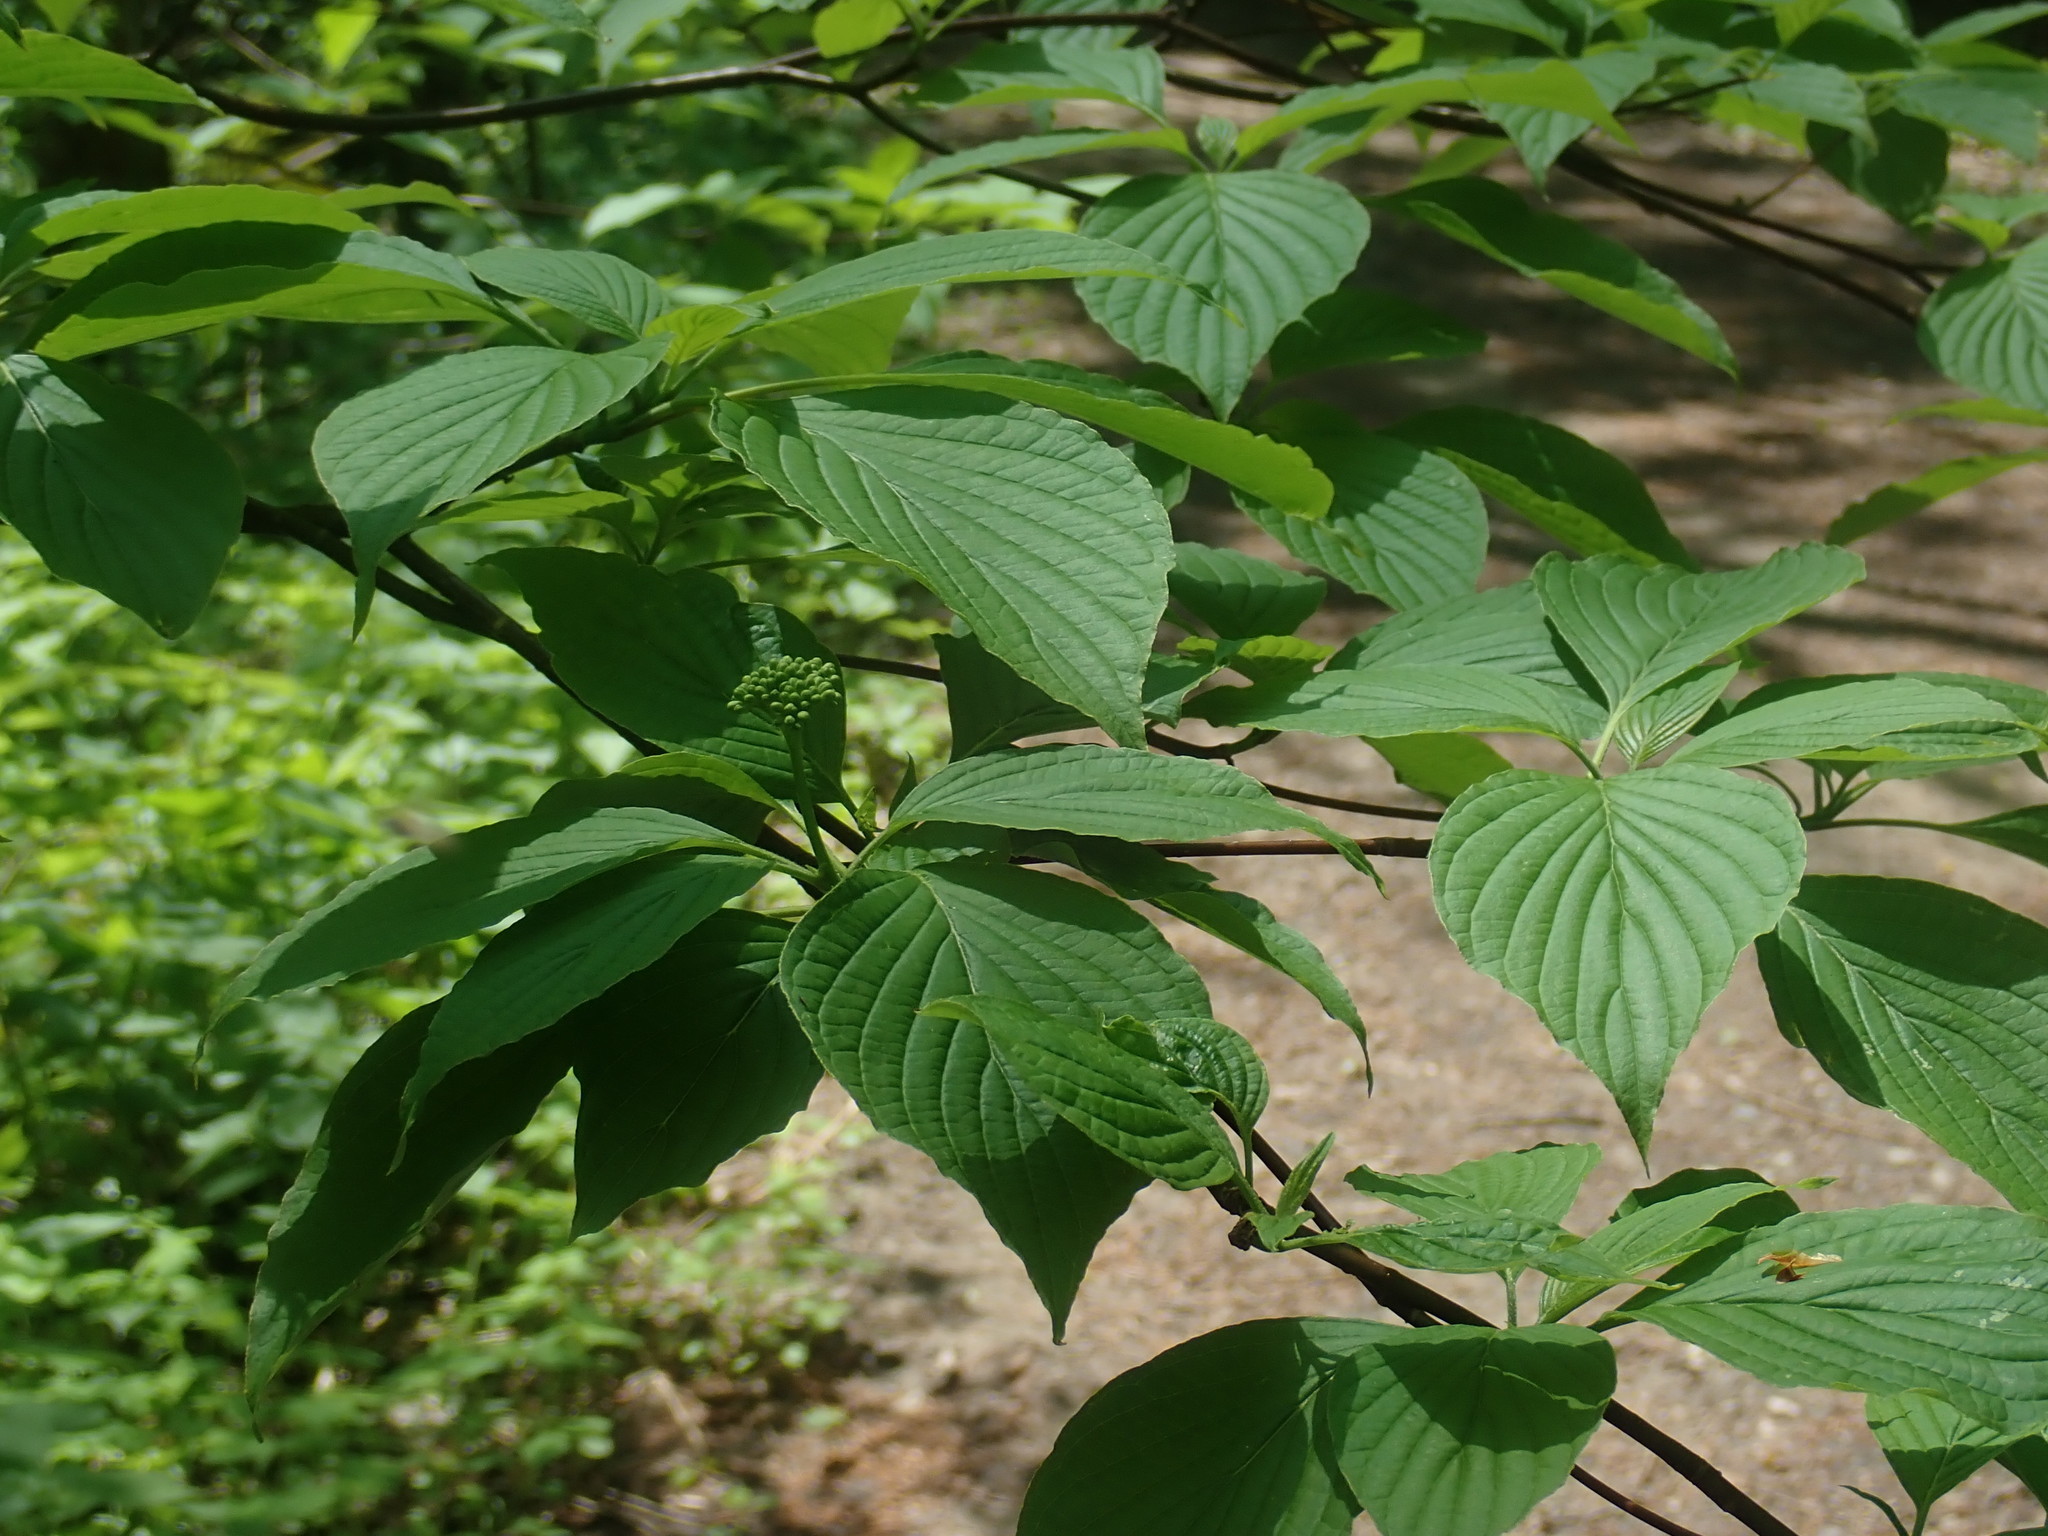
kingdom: Plantae
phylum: Tracheophyta
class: Magnoliopsida
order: Cornales
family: Cornaceae
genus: Cornus
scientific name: Cornus alternifolia
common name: Pagoda dogwood
